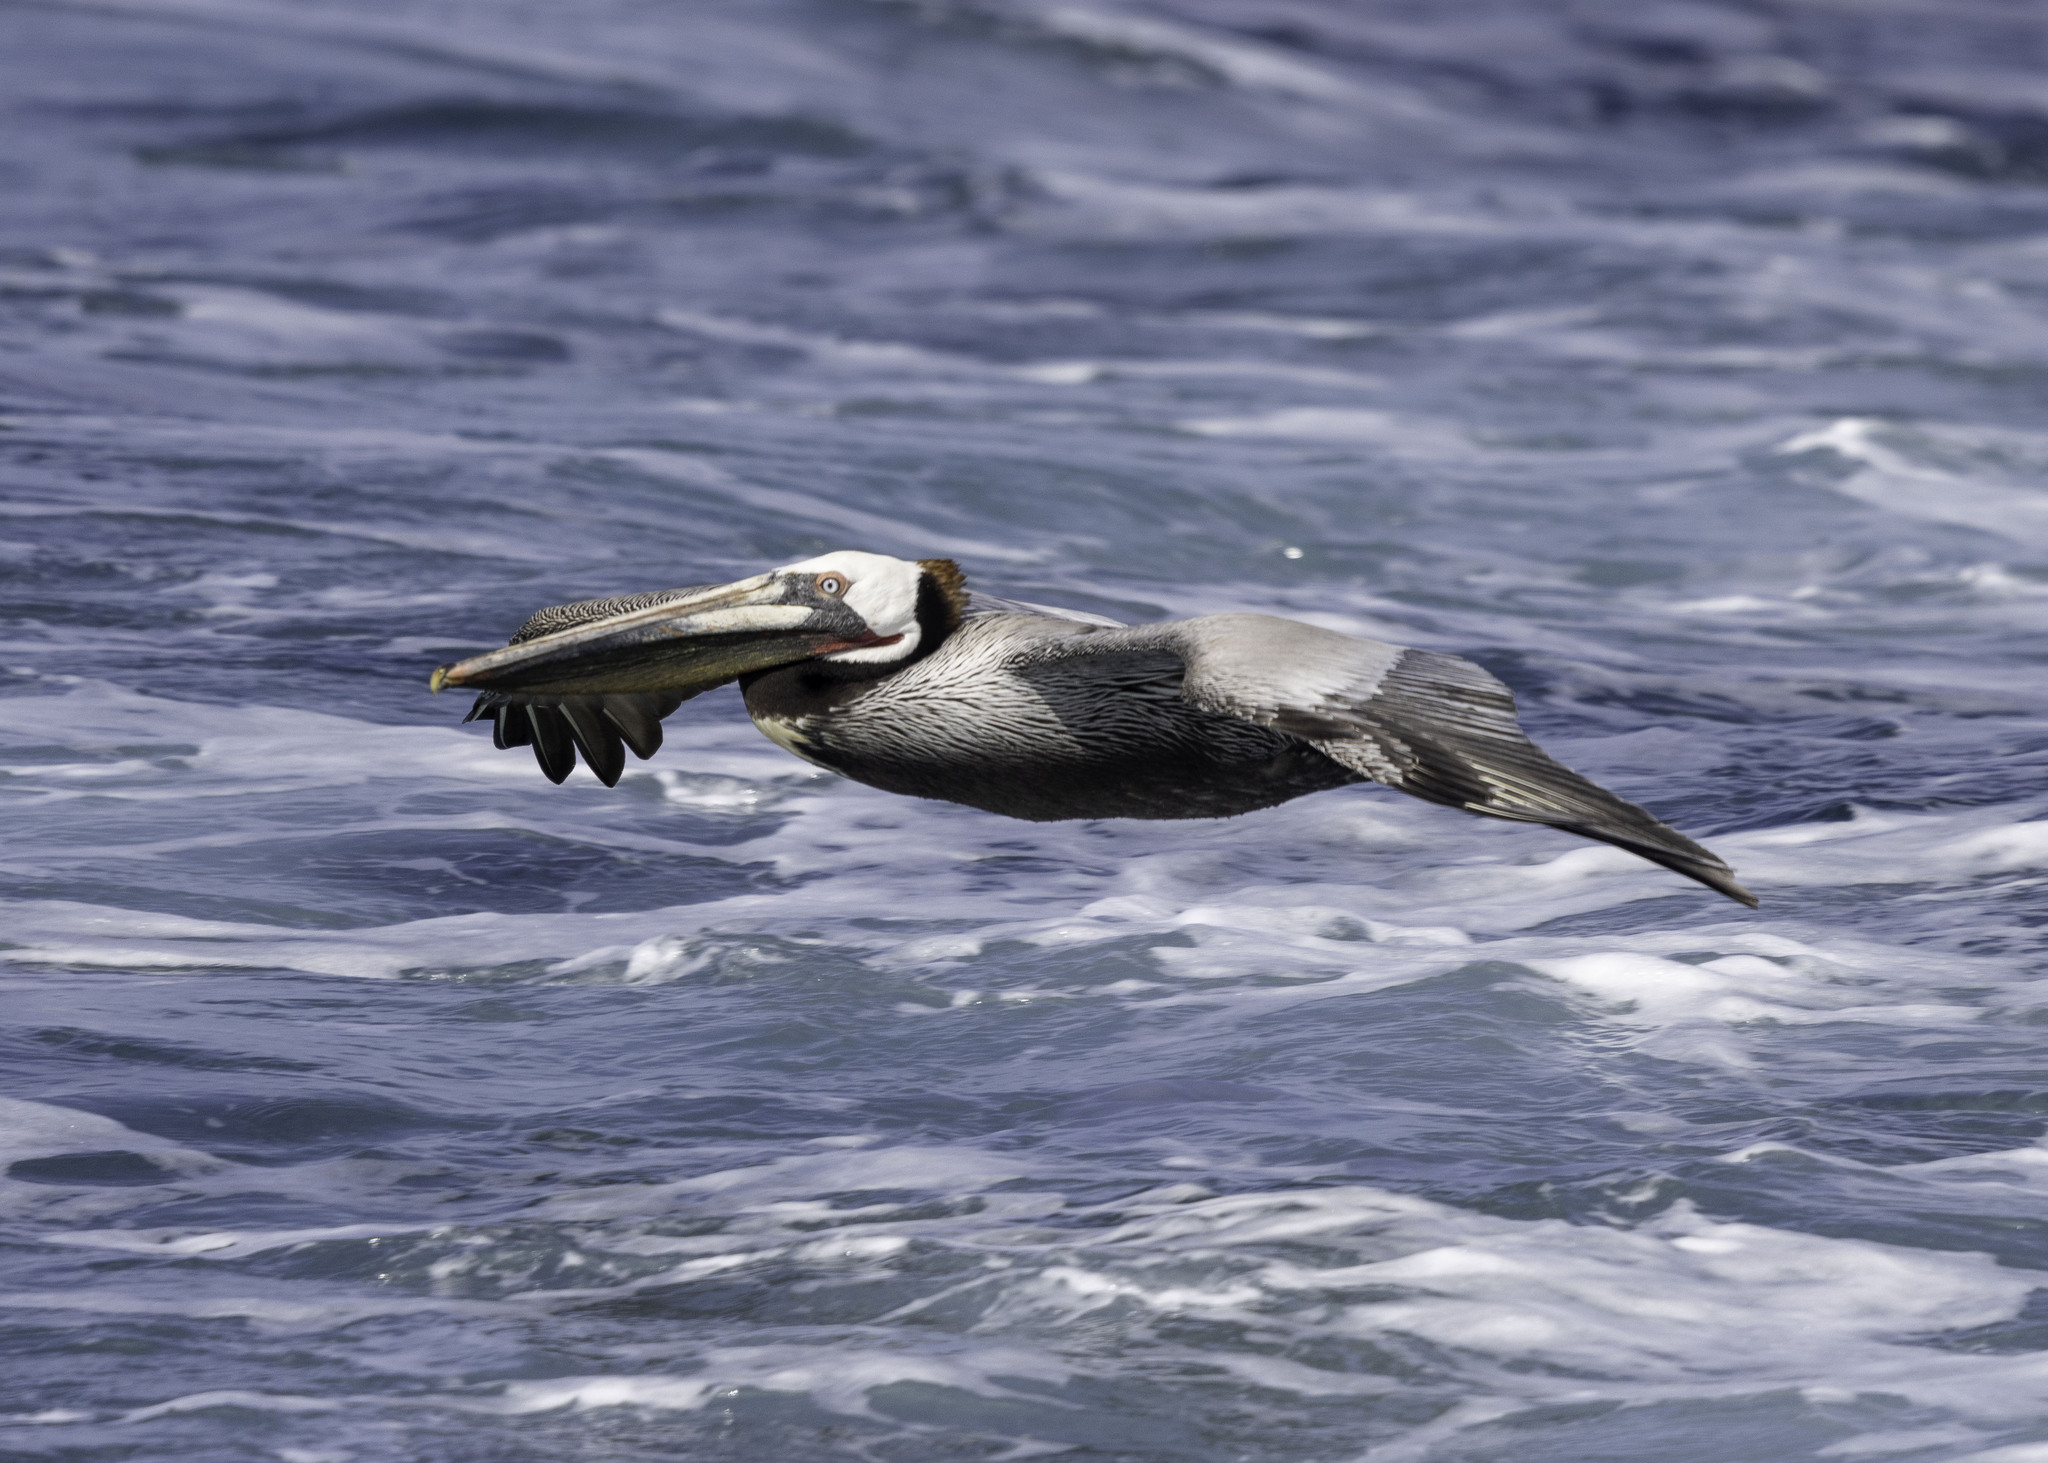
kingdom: Animalia
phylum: Chordata
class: Aves
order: Pelecaniformes
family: Pelecanidae
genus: Pelecanus
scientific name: Pelecanus occidentalis
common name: Brown pelican
